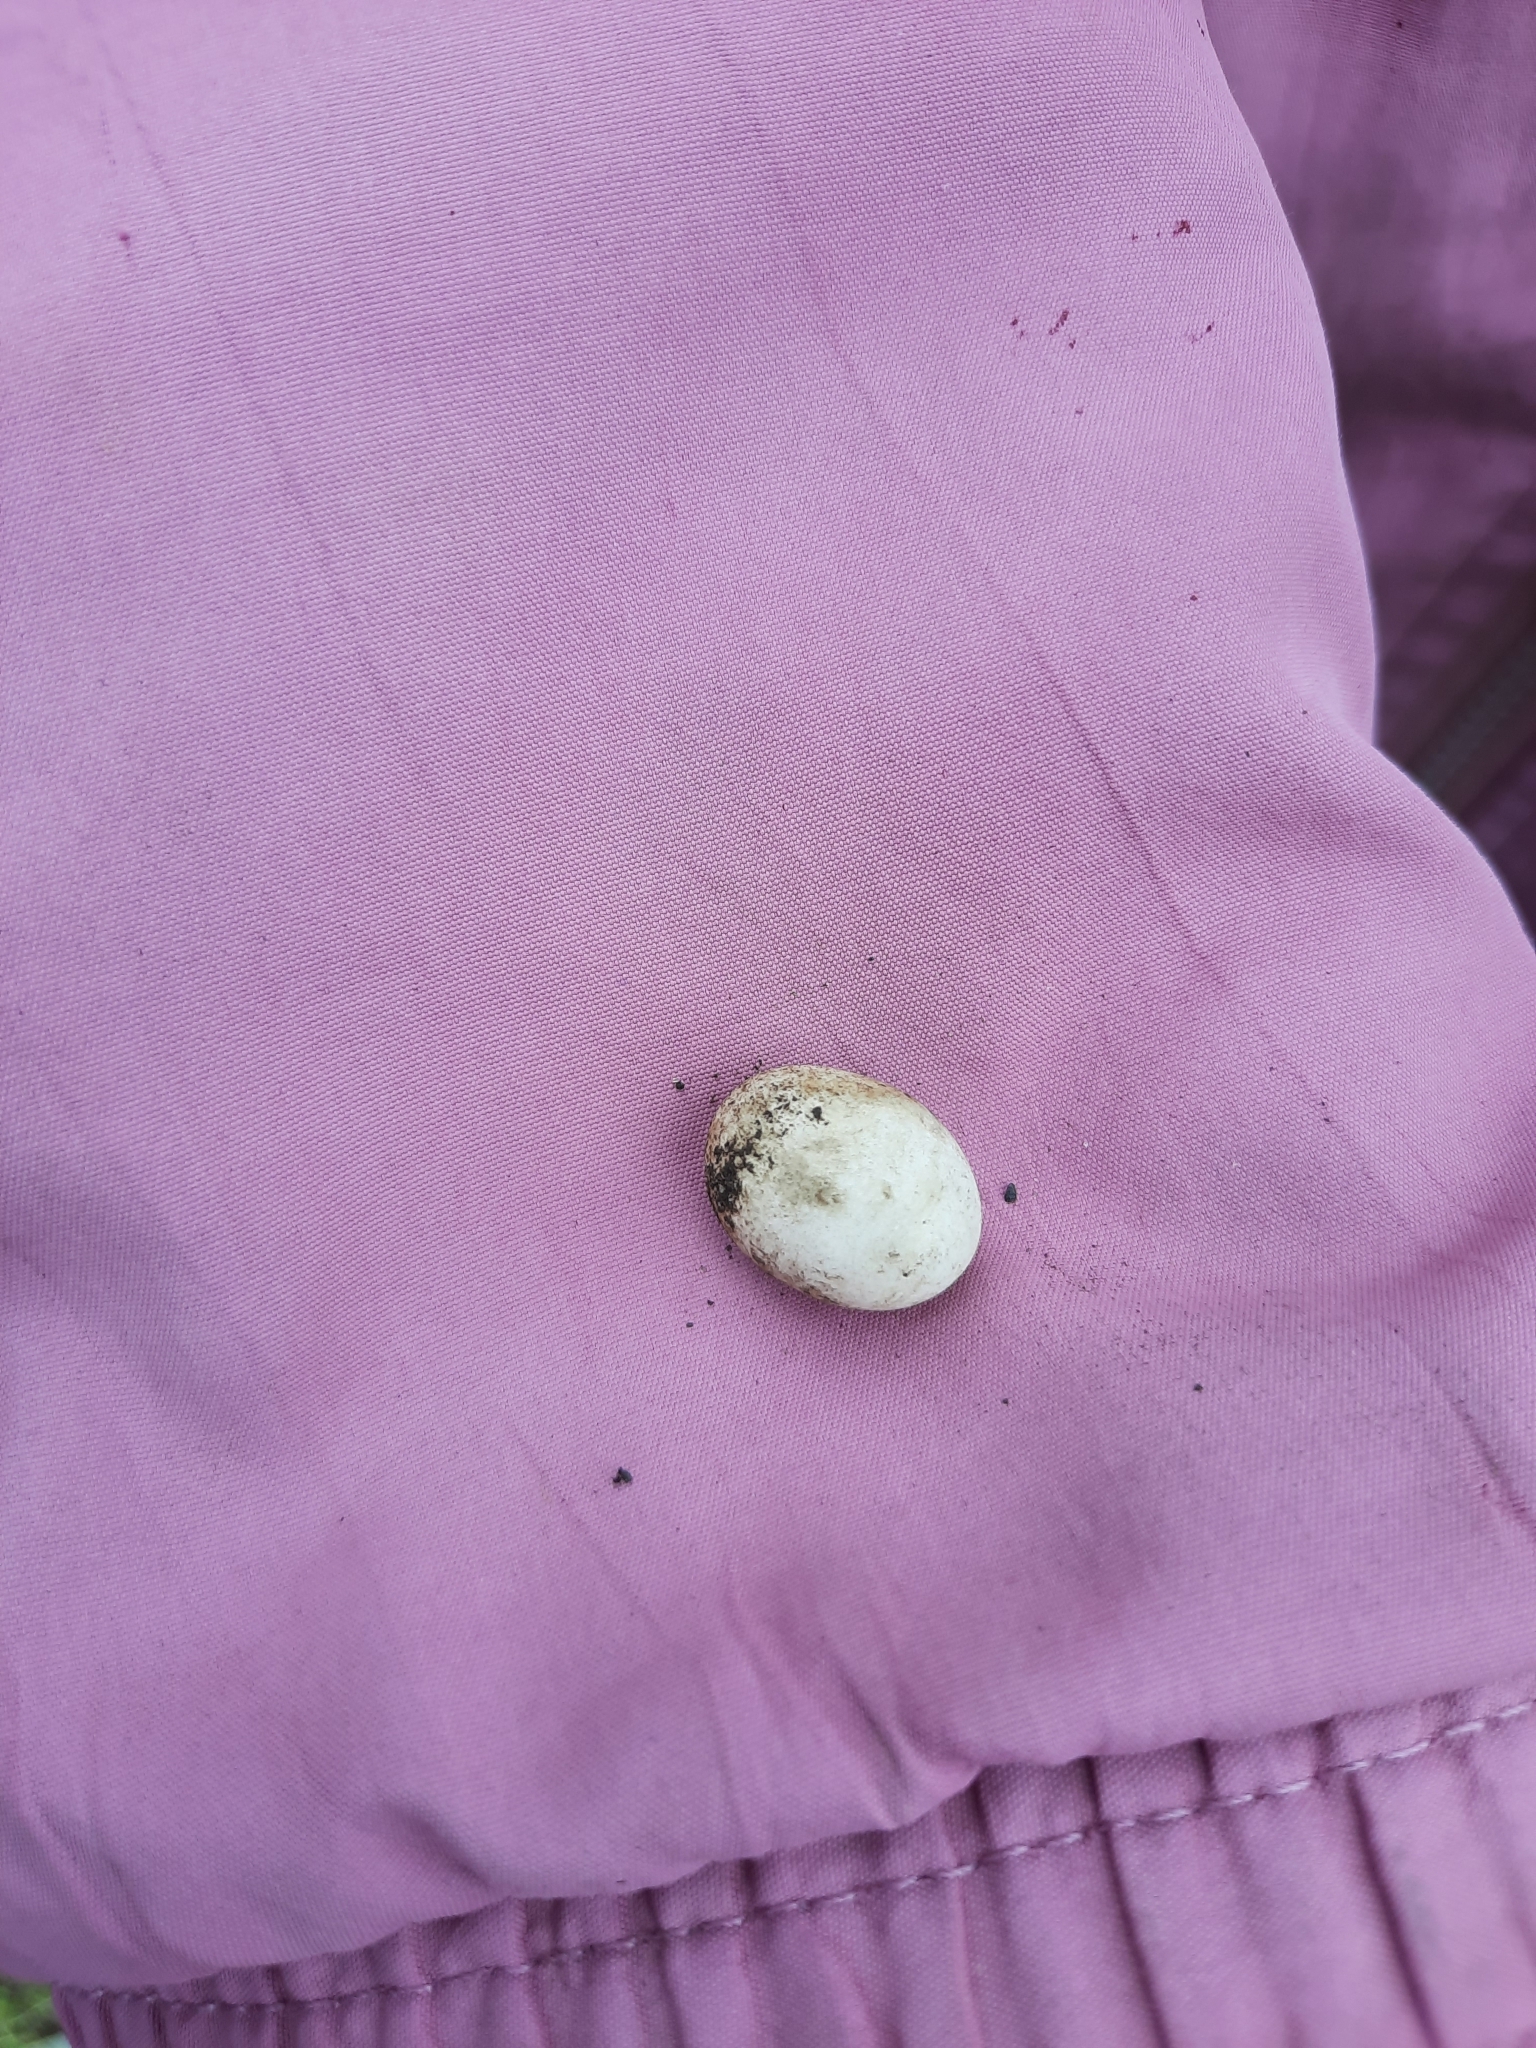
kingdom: Animalia
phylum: Chordata
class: Squamata
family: Lacertidae
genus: Lacerta
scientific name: Lacerta agilis
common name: Sand lizard
